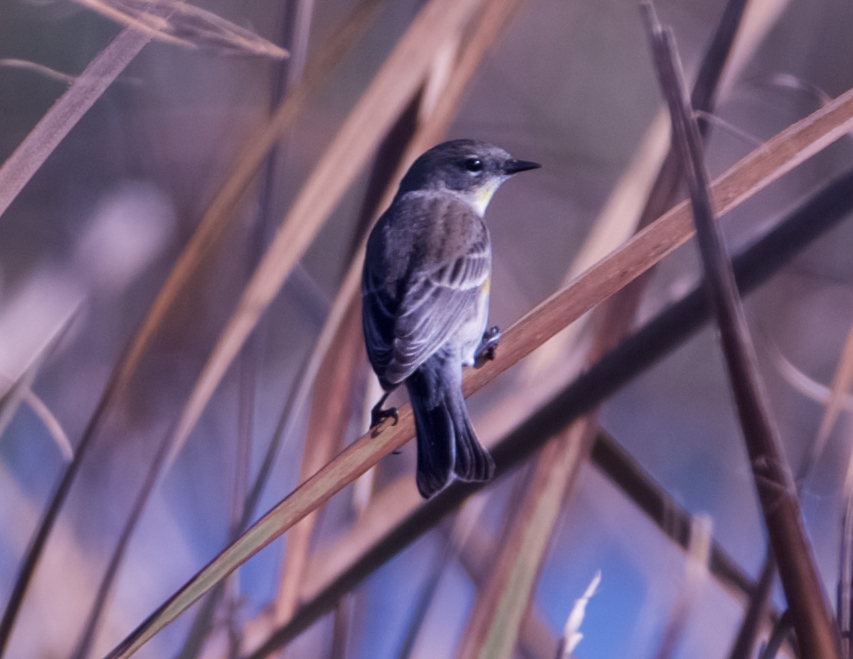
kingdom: Animalia
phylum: Chordata
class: Aves
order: Passeriformes
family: Parulidae
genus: Setophaga
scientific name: Setophaga coronata
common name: Myrtle warbler
